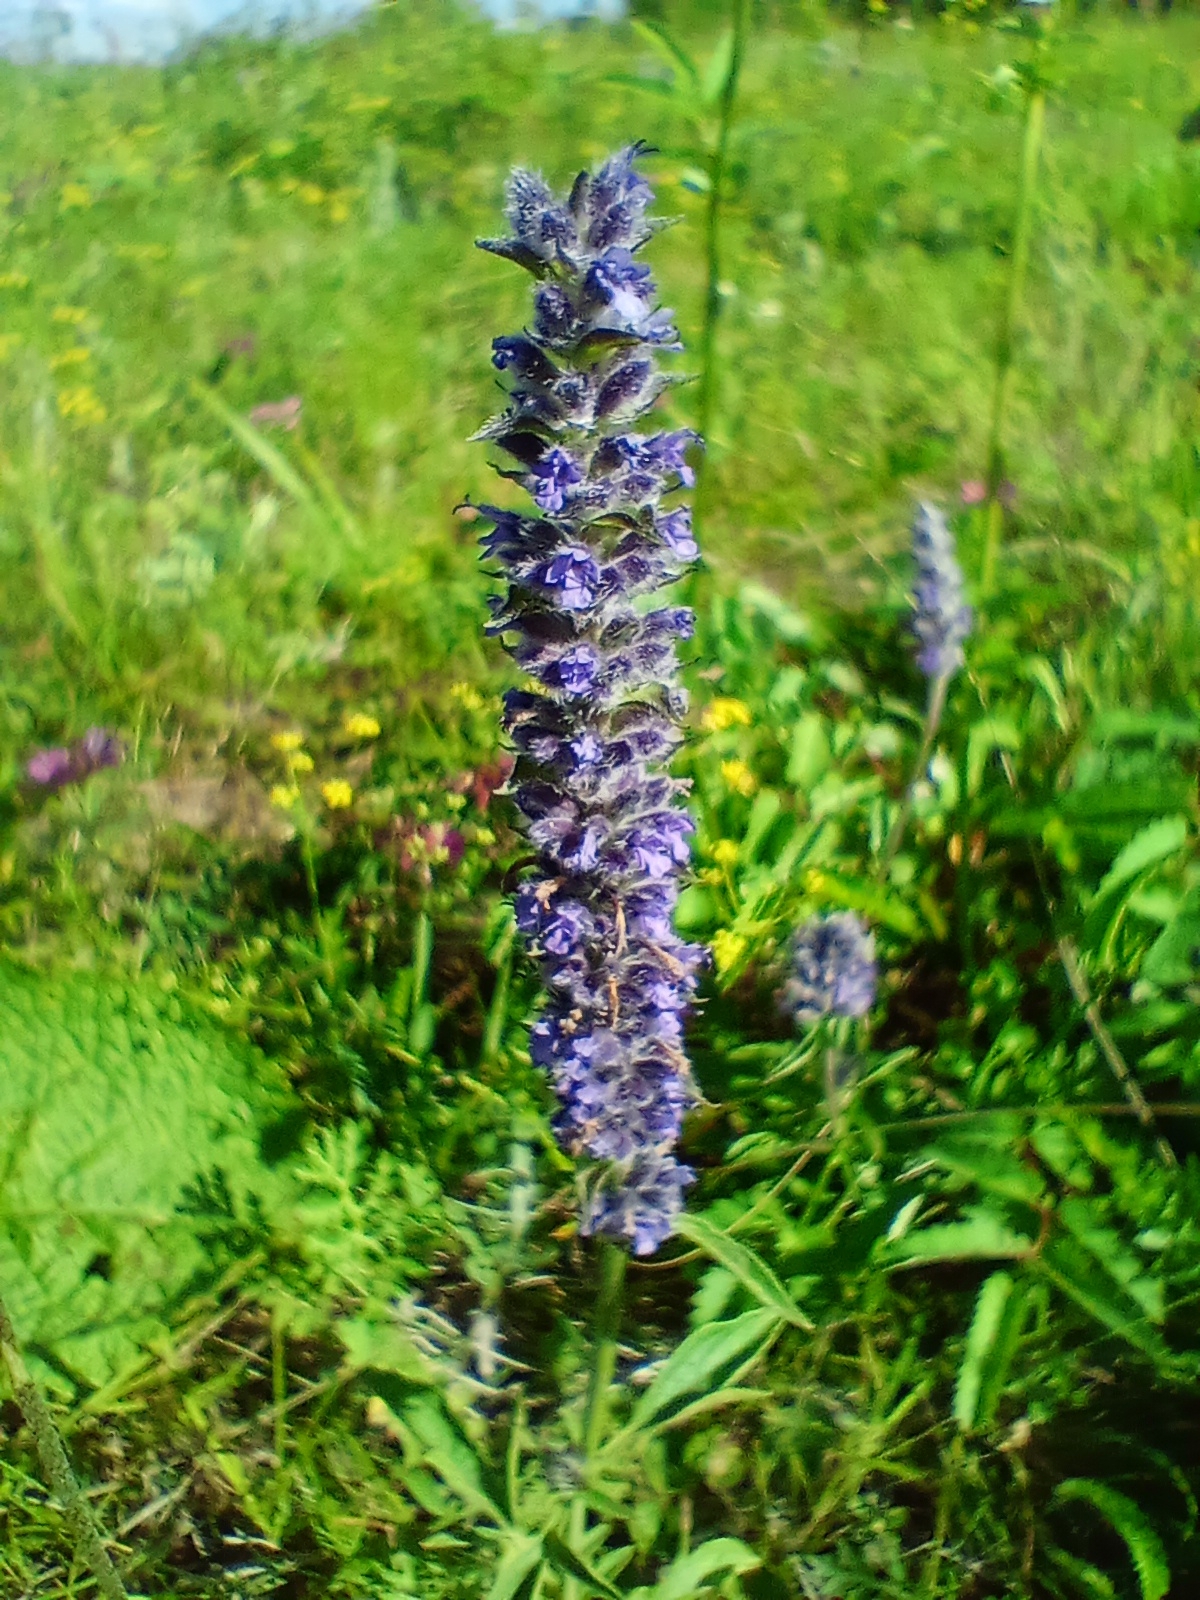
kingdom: Plantae
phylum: Tracheophyta
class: Magnoliopsida
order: Lamiales
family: Lamiaceae
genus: Nepeta
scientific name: Nepeta multifida
